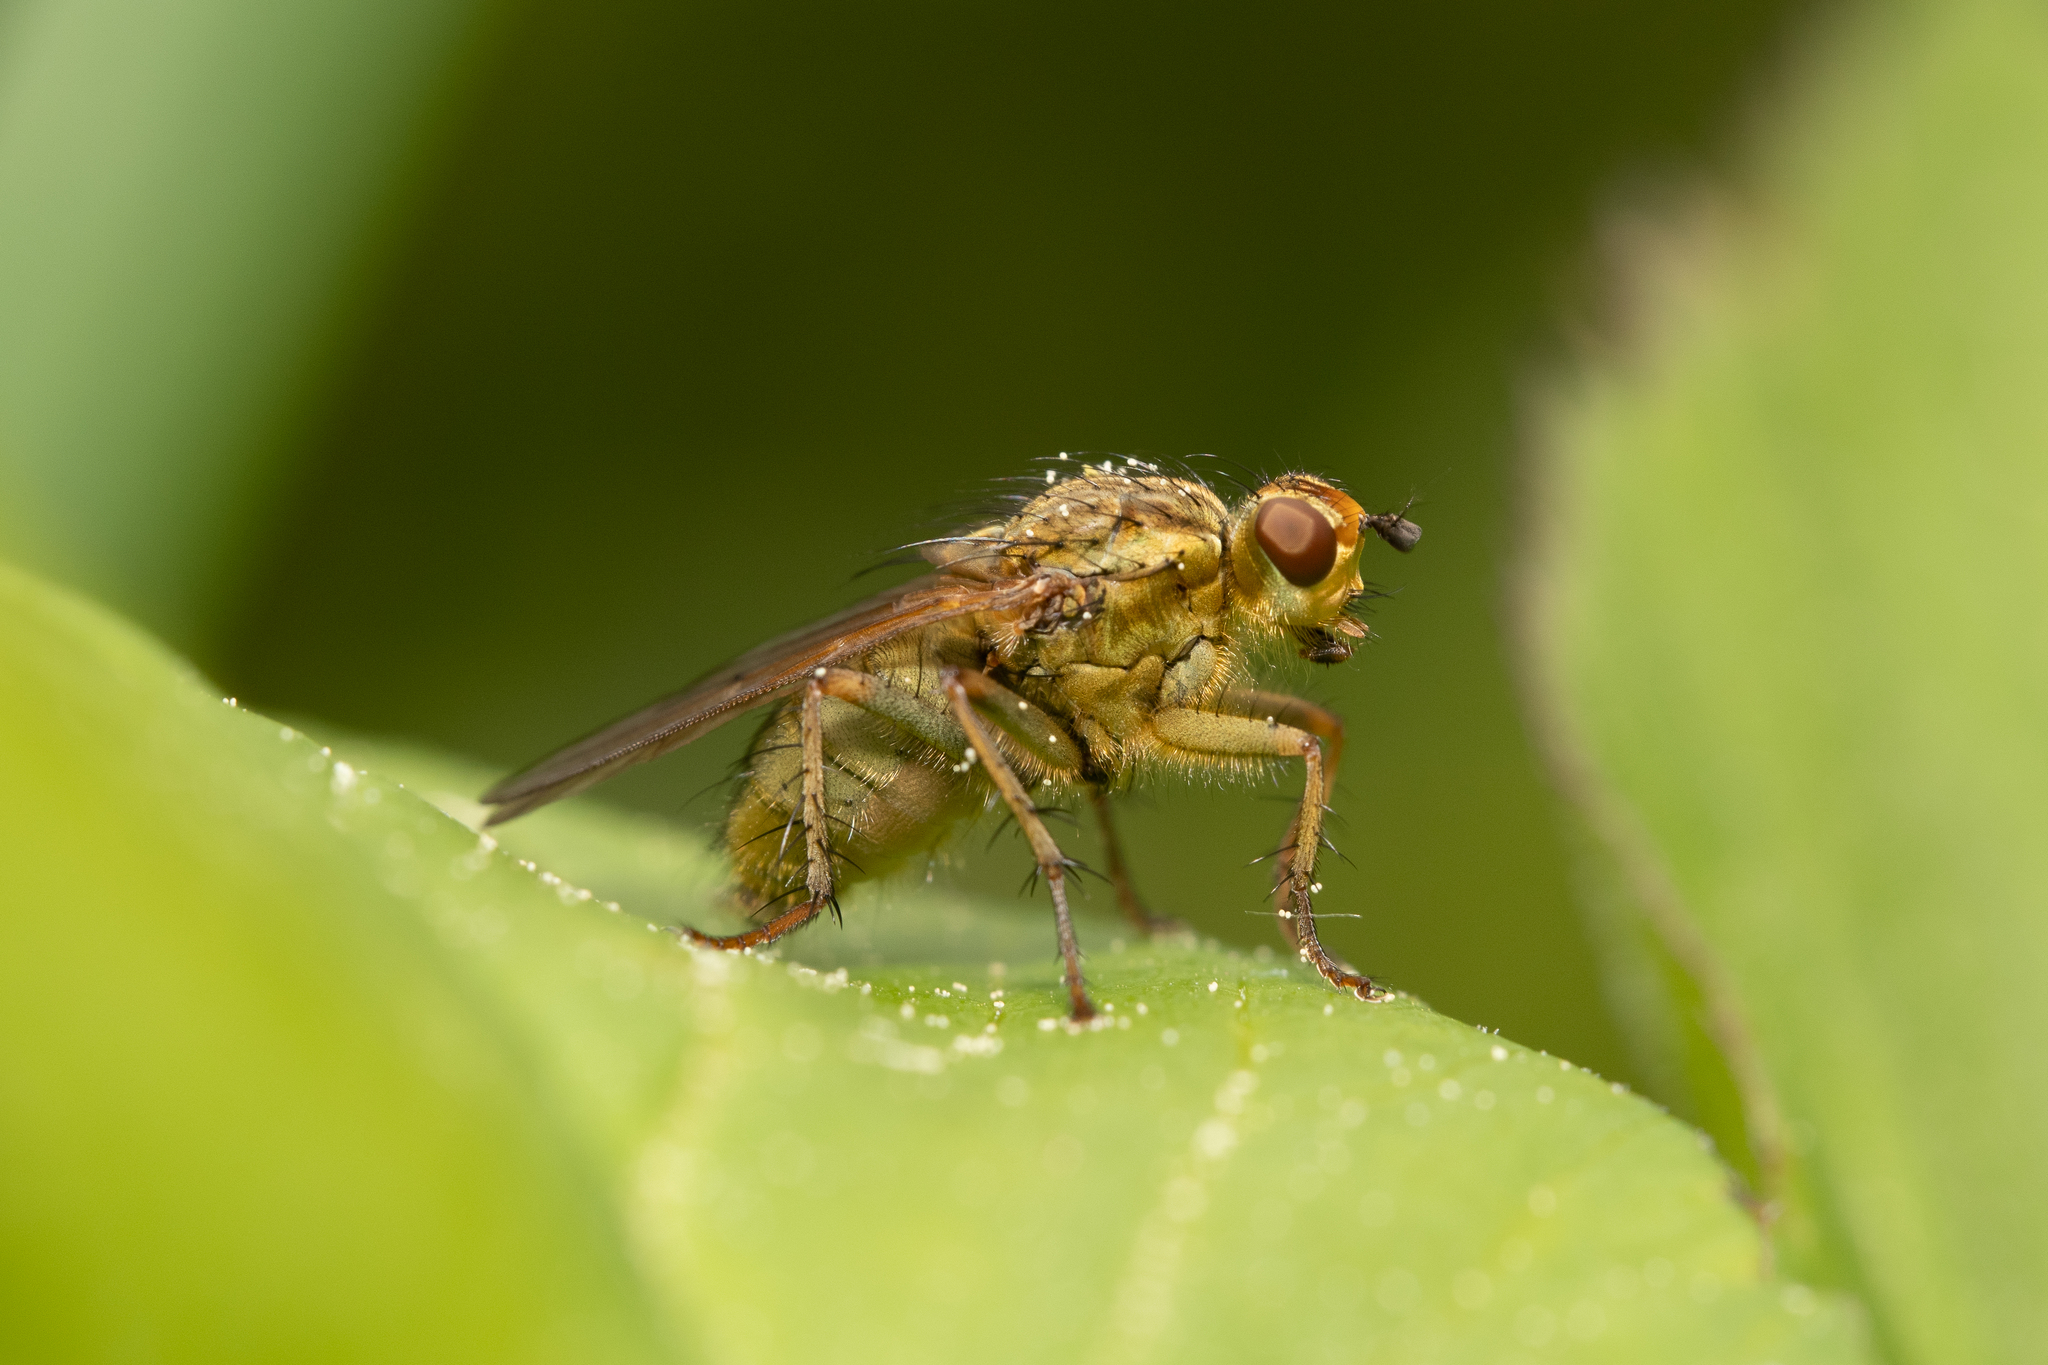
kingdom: Animalia
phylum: Arthropoda
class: Insecta
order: Diptera
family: Scathophagidae
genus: Scathophaga
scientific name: Scathophaga stercoraria
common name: Yellow dung fly
